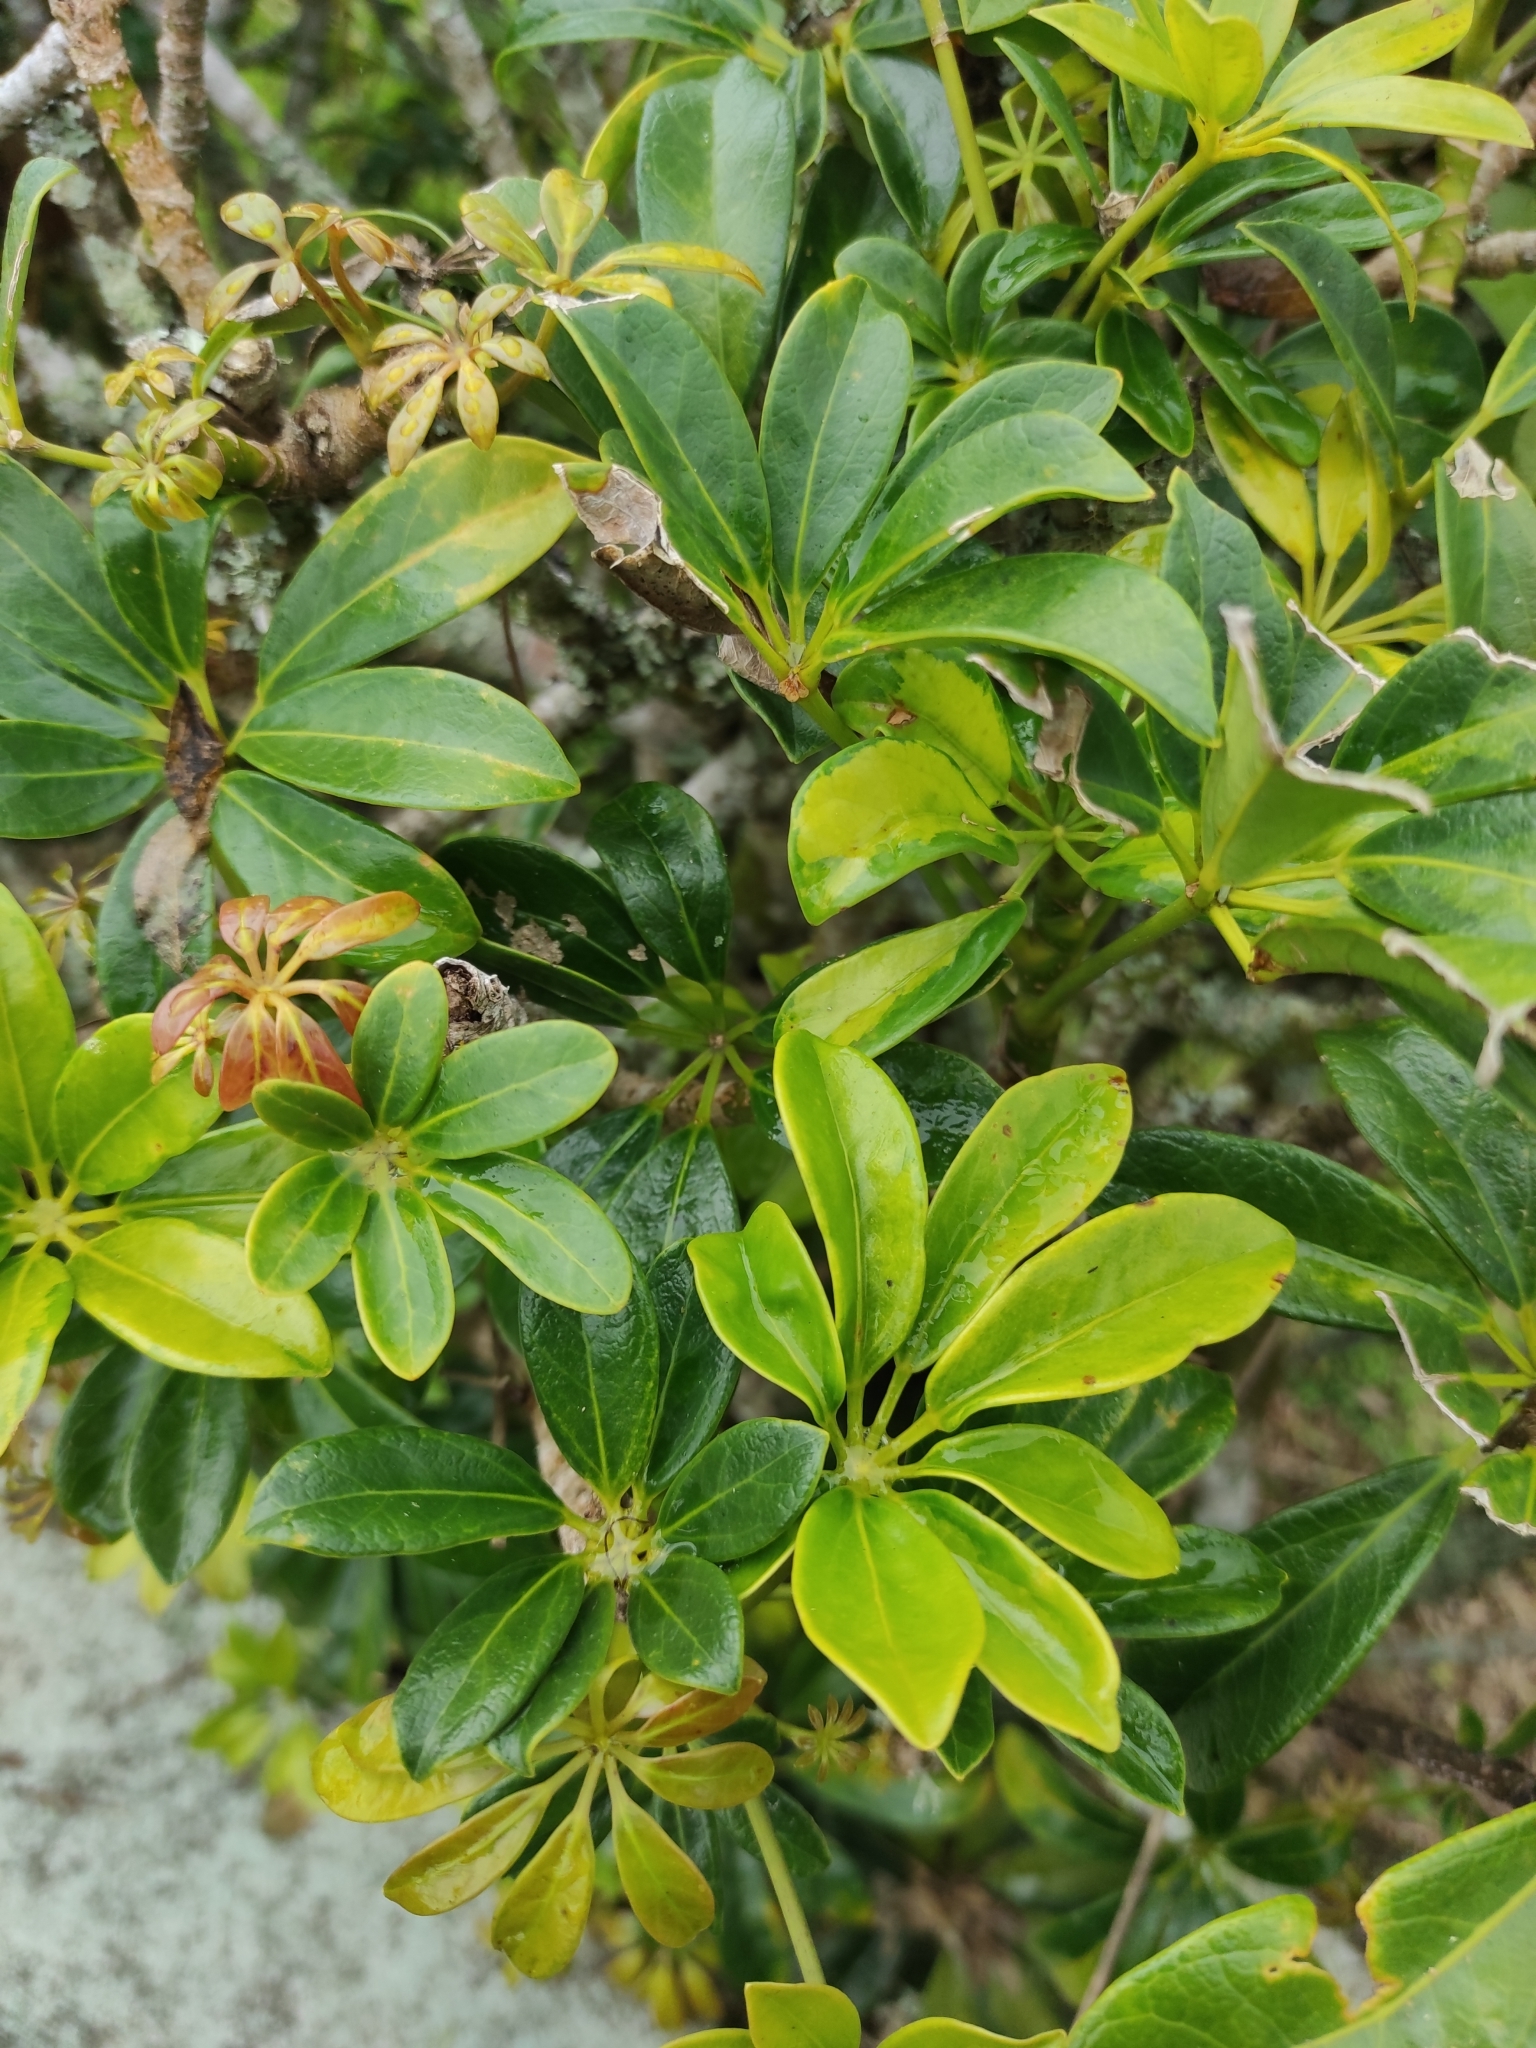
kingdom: Plantae
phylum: Tracheophyta
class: Magnoliopsida
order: Apiales
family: Araliaceae
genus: Heptapleurum
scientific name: Heptapleurum arboricola
